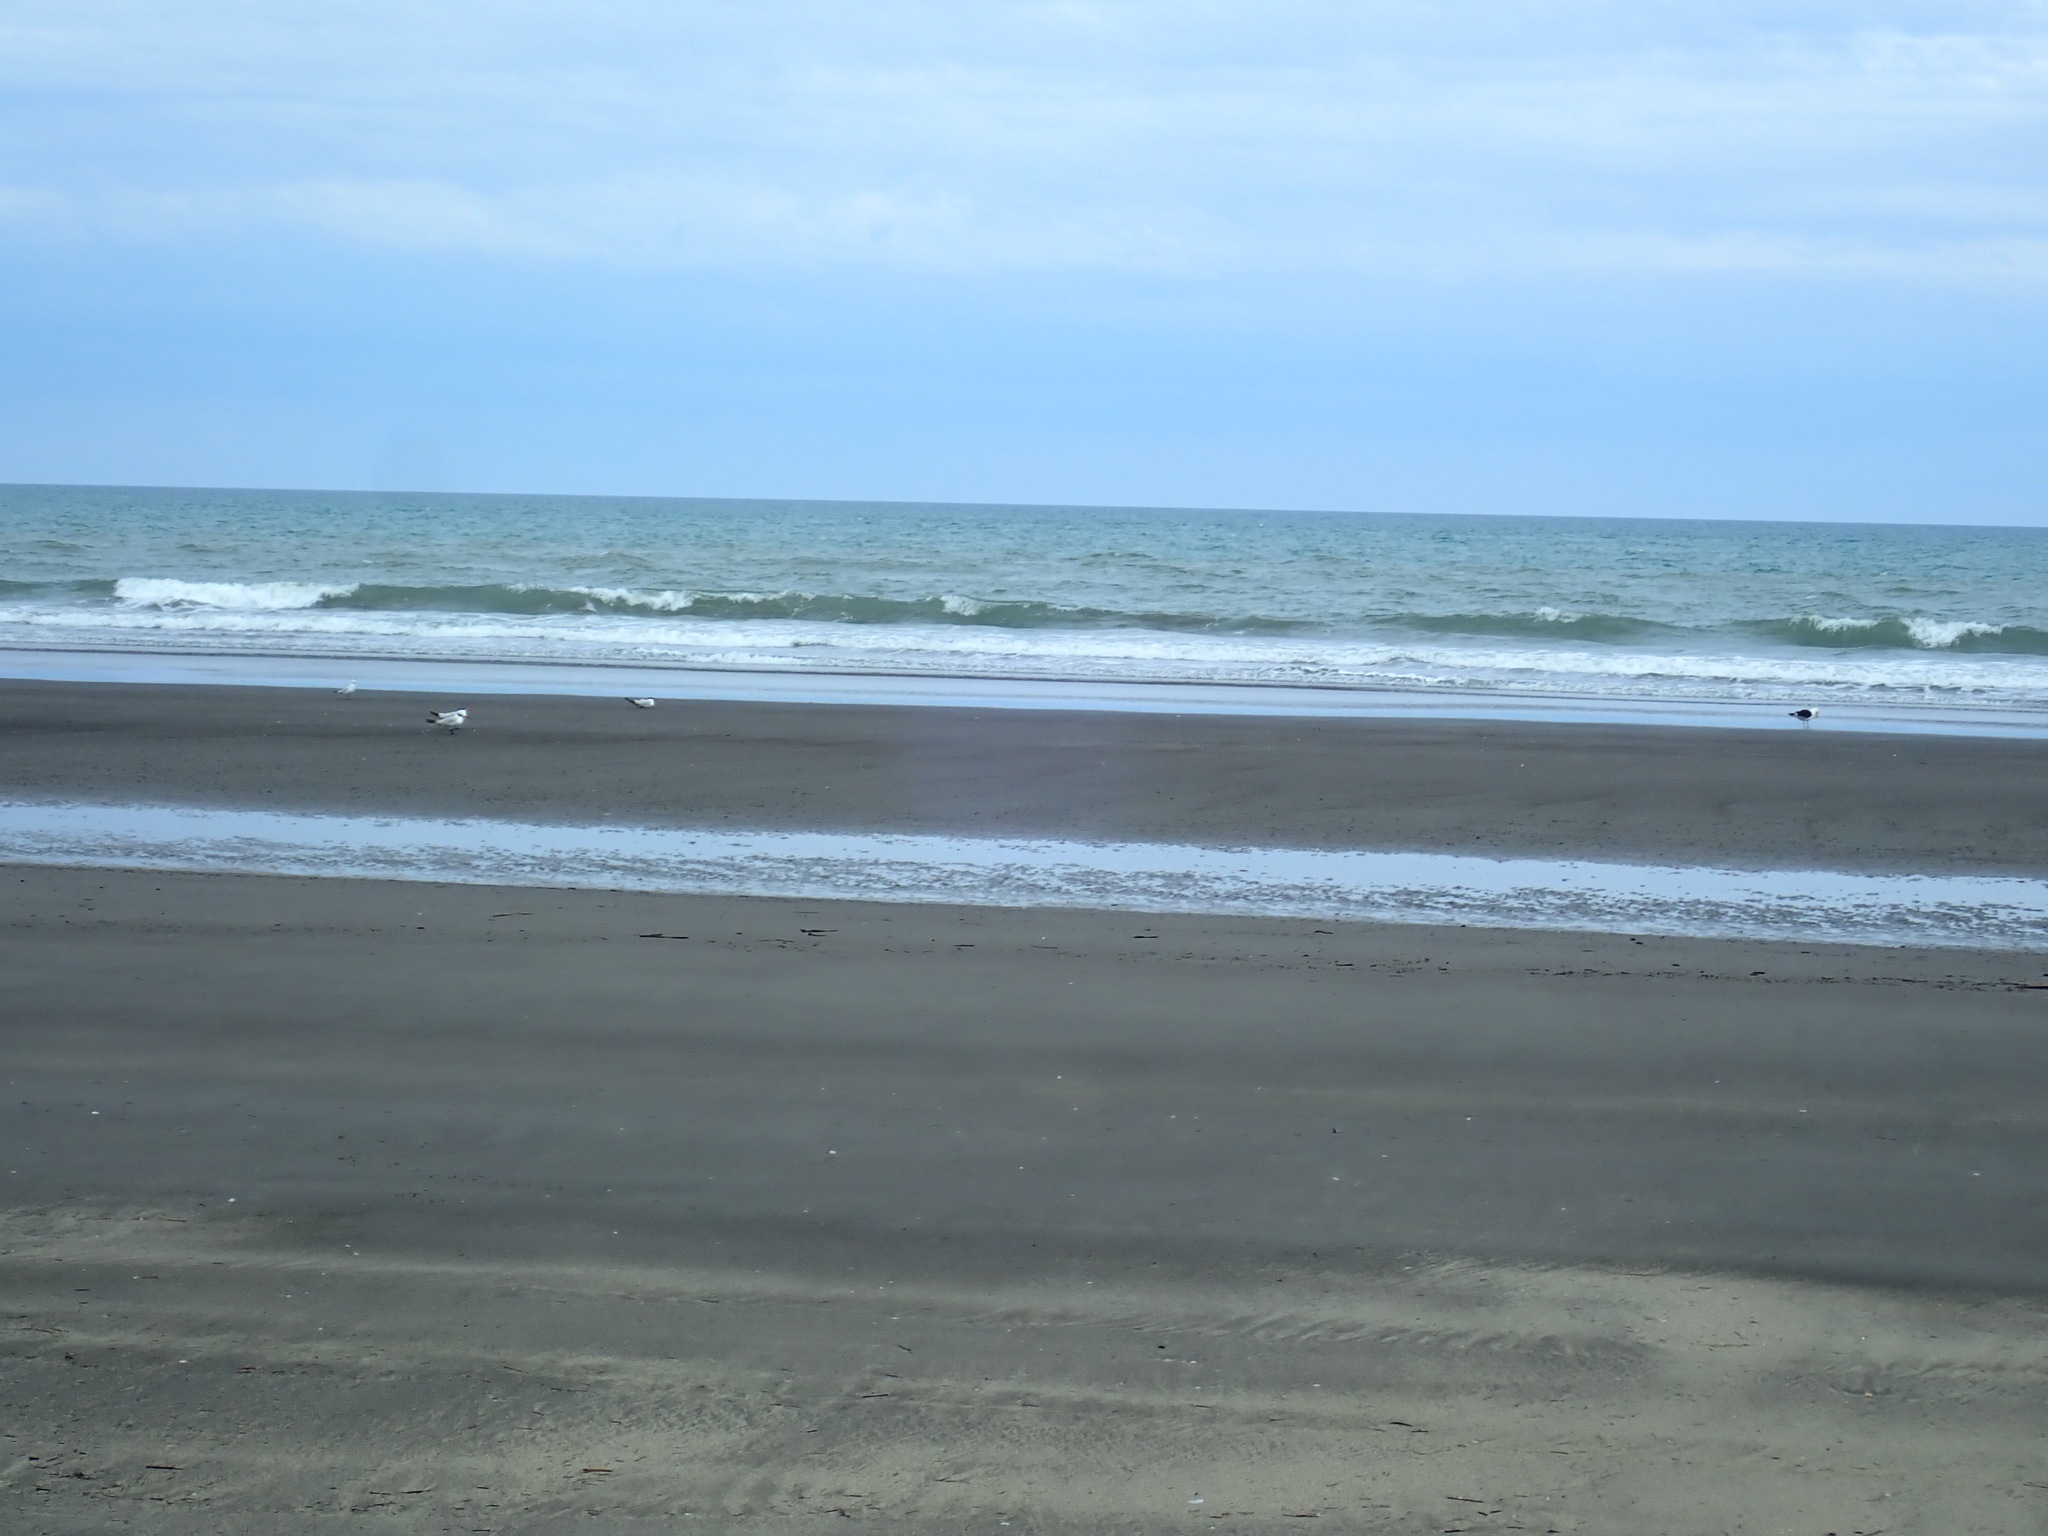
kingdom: Animalia
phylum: Chordata
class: Aves
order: Charadriiformes
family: Laridae
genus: Hydroprogne
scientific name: Hydroprogne caspia
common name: Caspian tern
